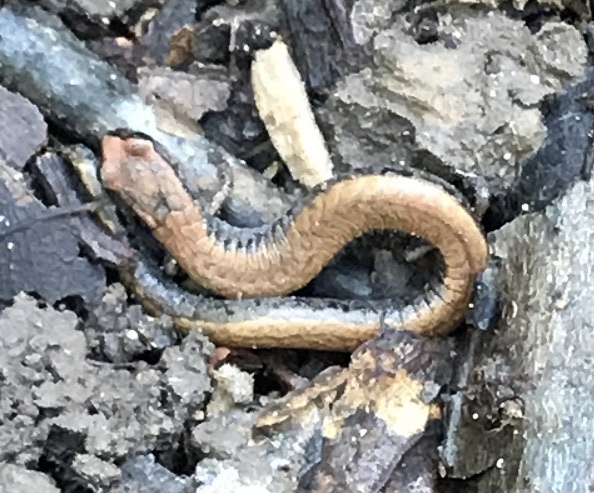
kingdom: Animalia
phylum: Chordata
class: Amphibia
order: Caudata
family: Plethodontidae
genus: Batrachoseps
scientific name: Batrachoseps attenuatus
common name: California slender salamander
